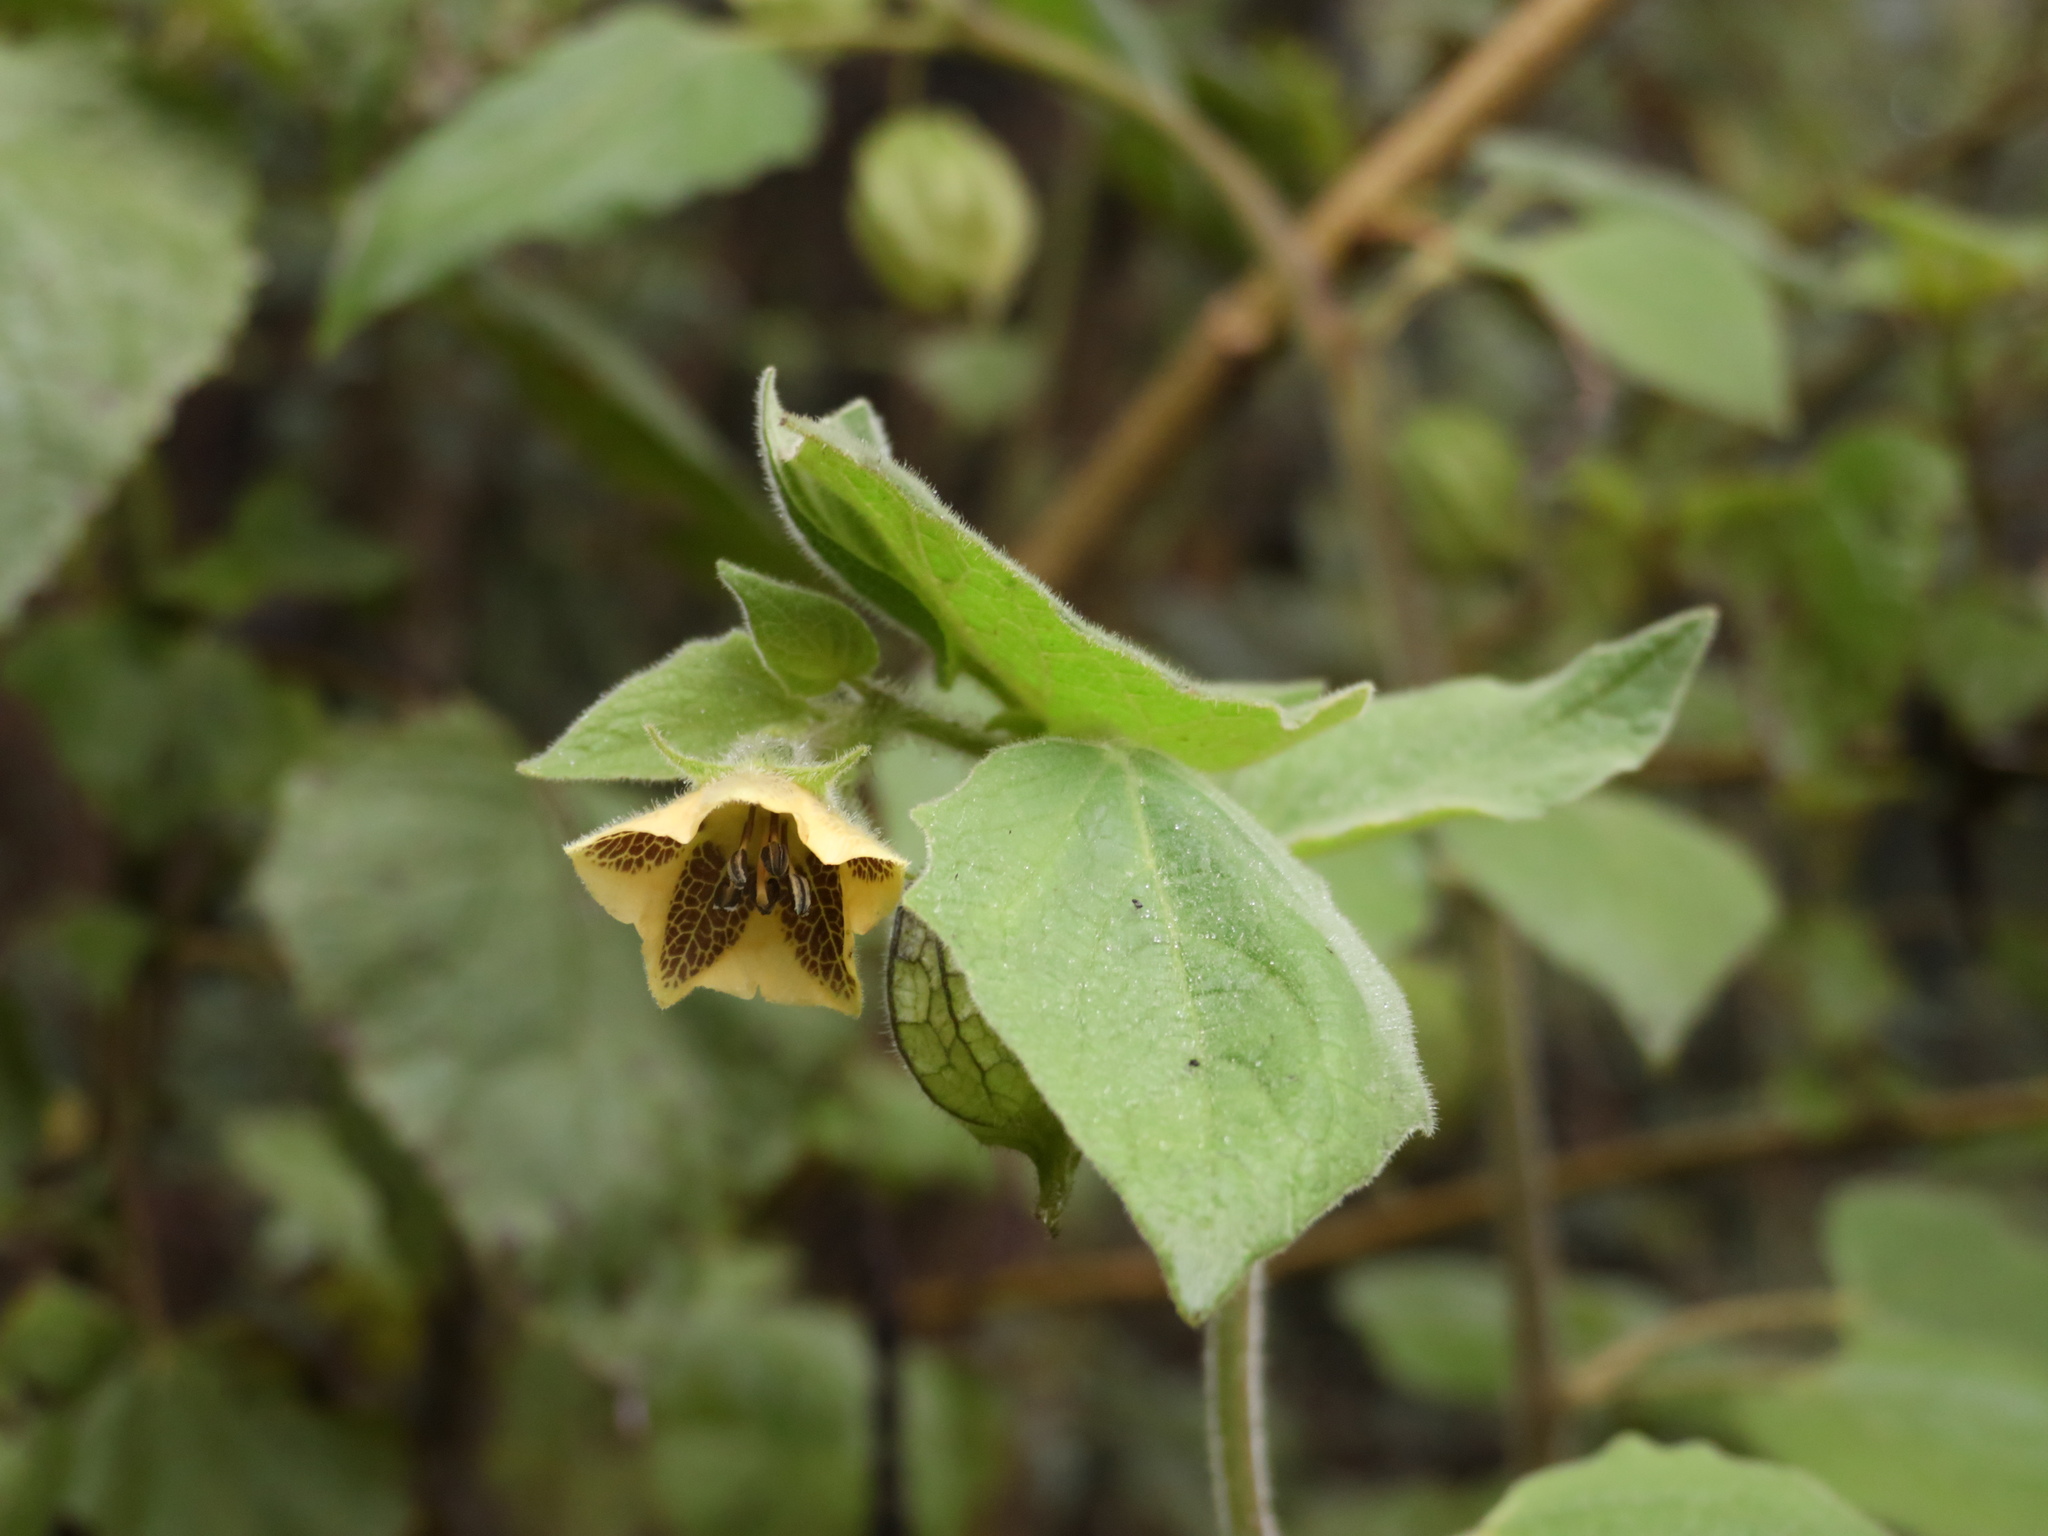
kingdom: Plantae
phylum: Tracheophyta
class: Magnoliopsida
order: Solanales
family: Solanaceae
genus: Physalis
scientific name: Physalis coztomatl
